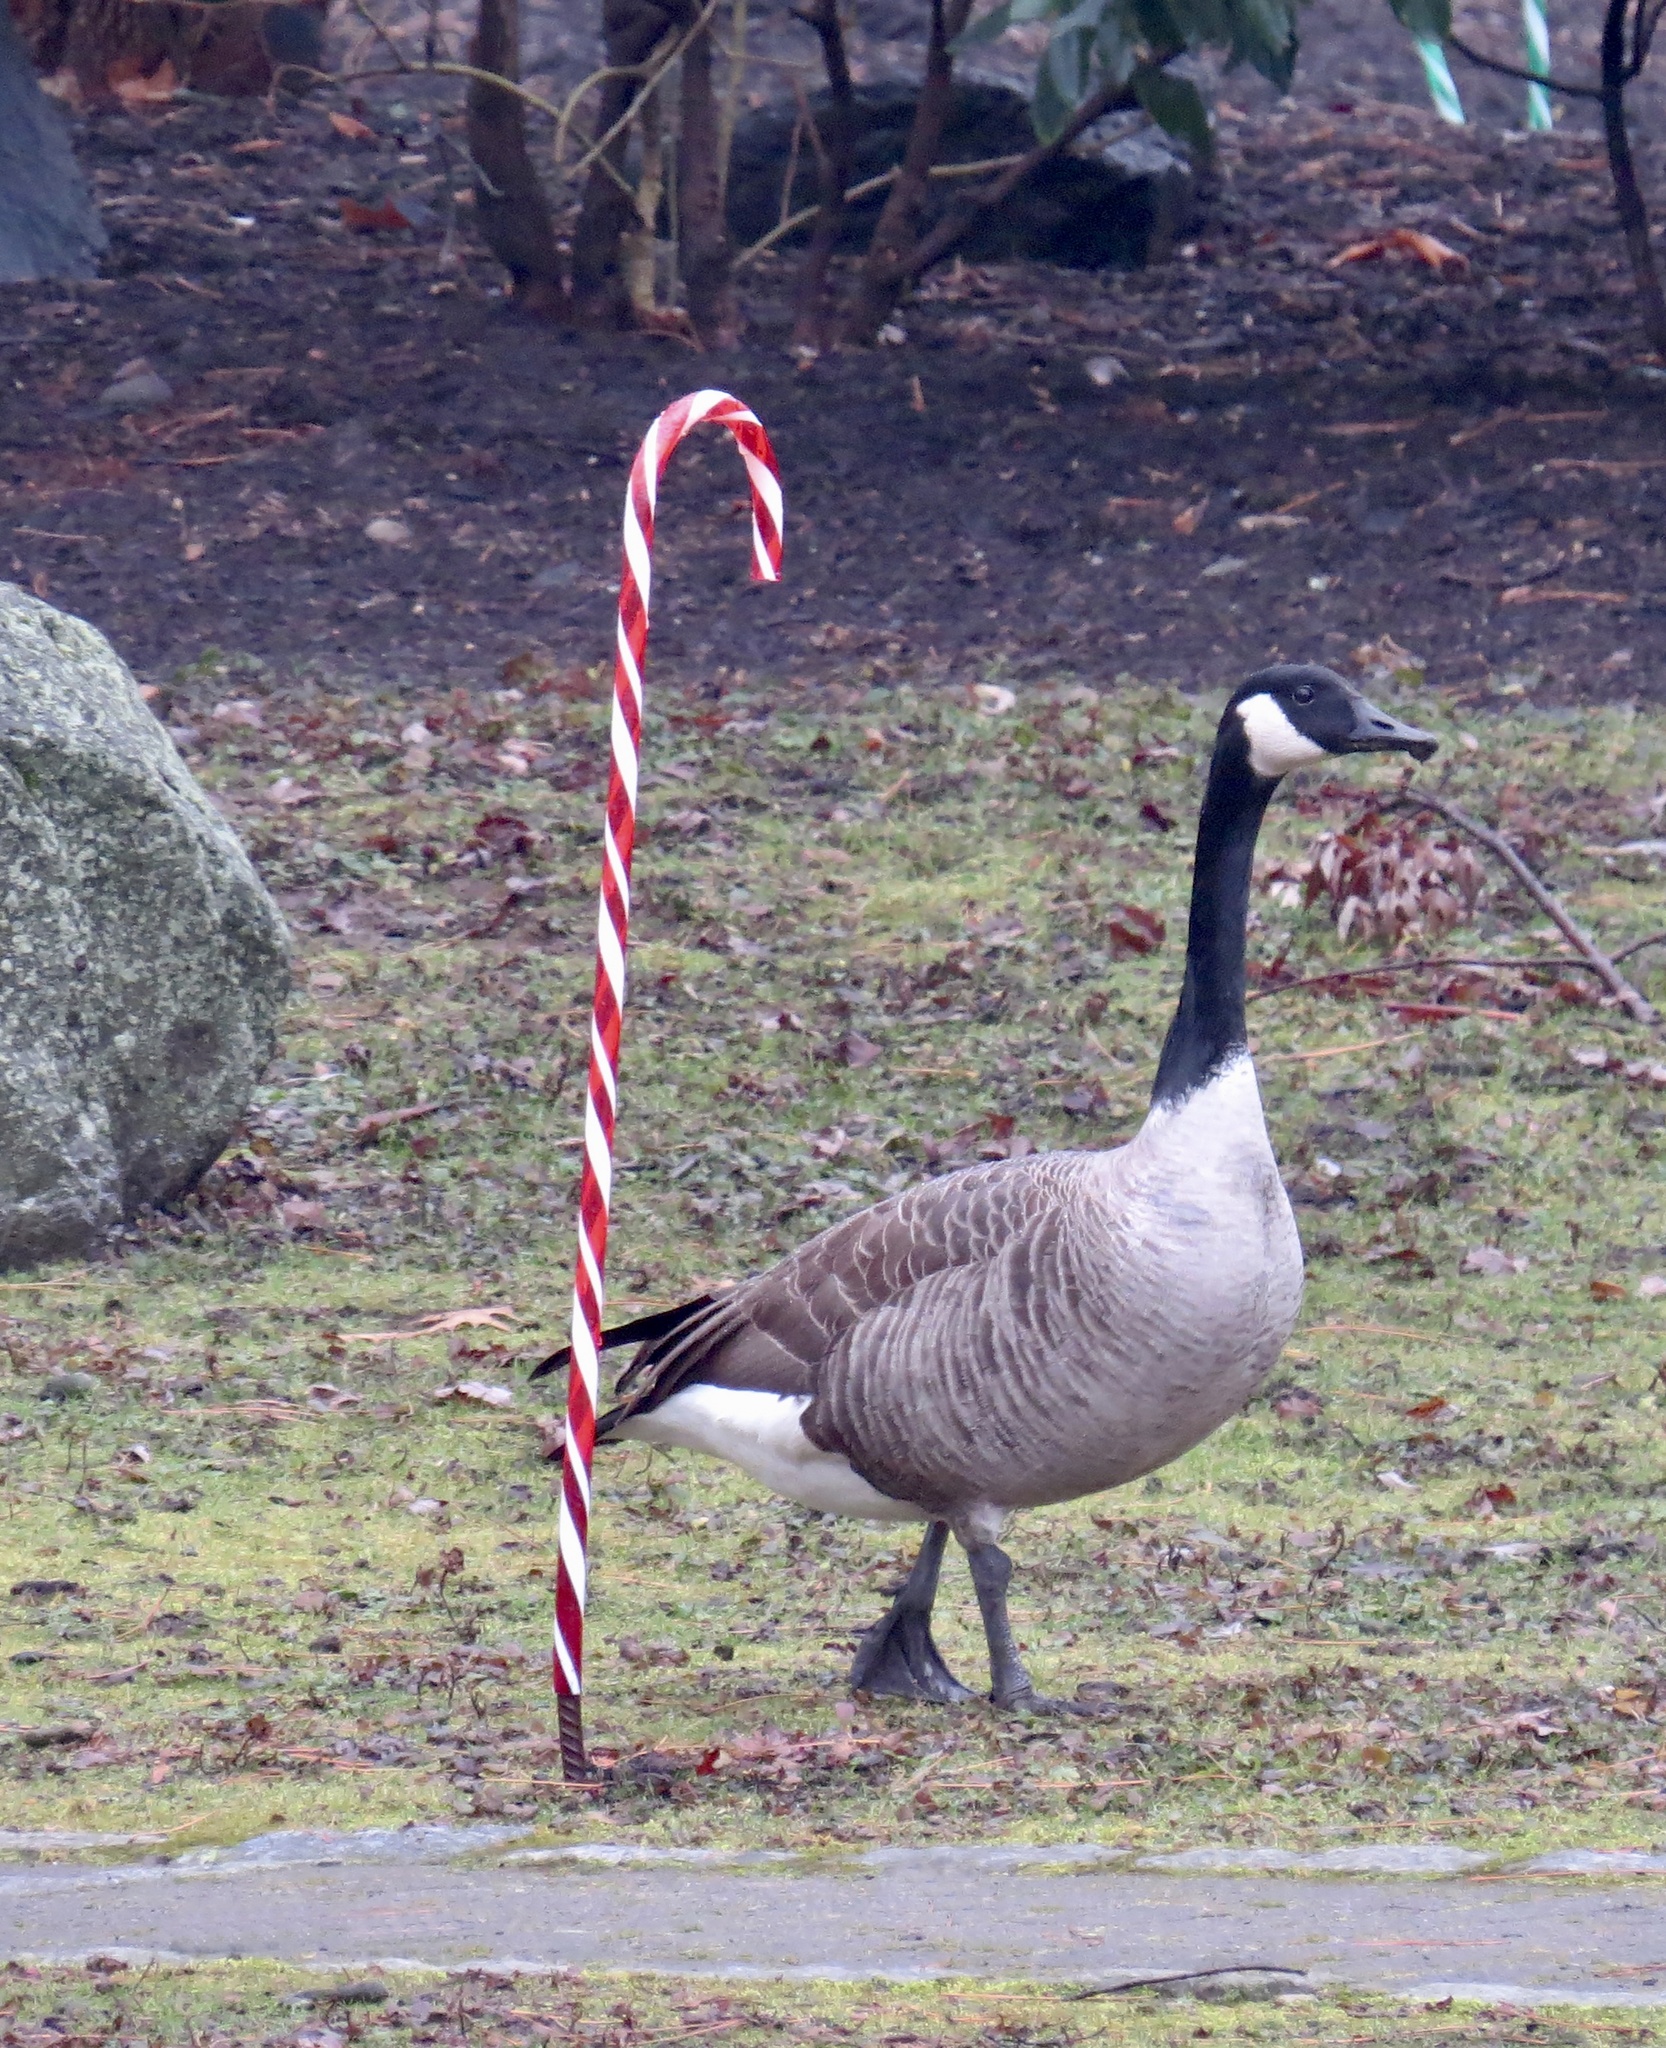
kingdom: Animalia
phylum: Chordata
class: Aves
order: Anseriformes
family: Anatidae
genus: Branta
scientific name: Branta canadensis
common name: Canada goose
